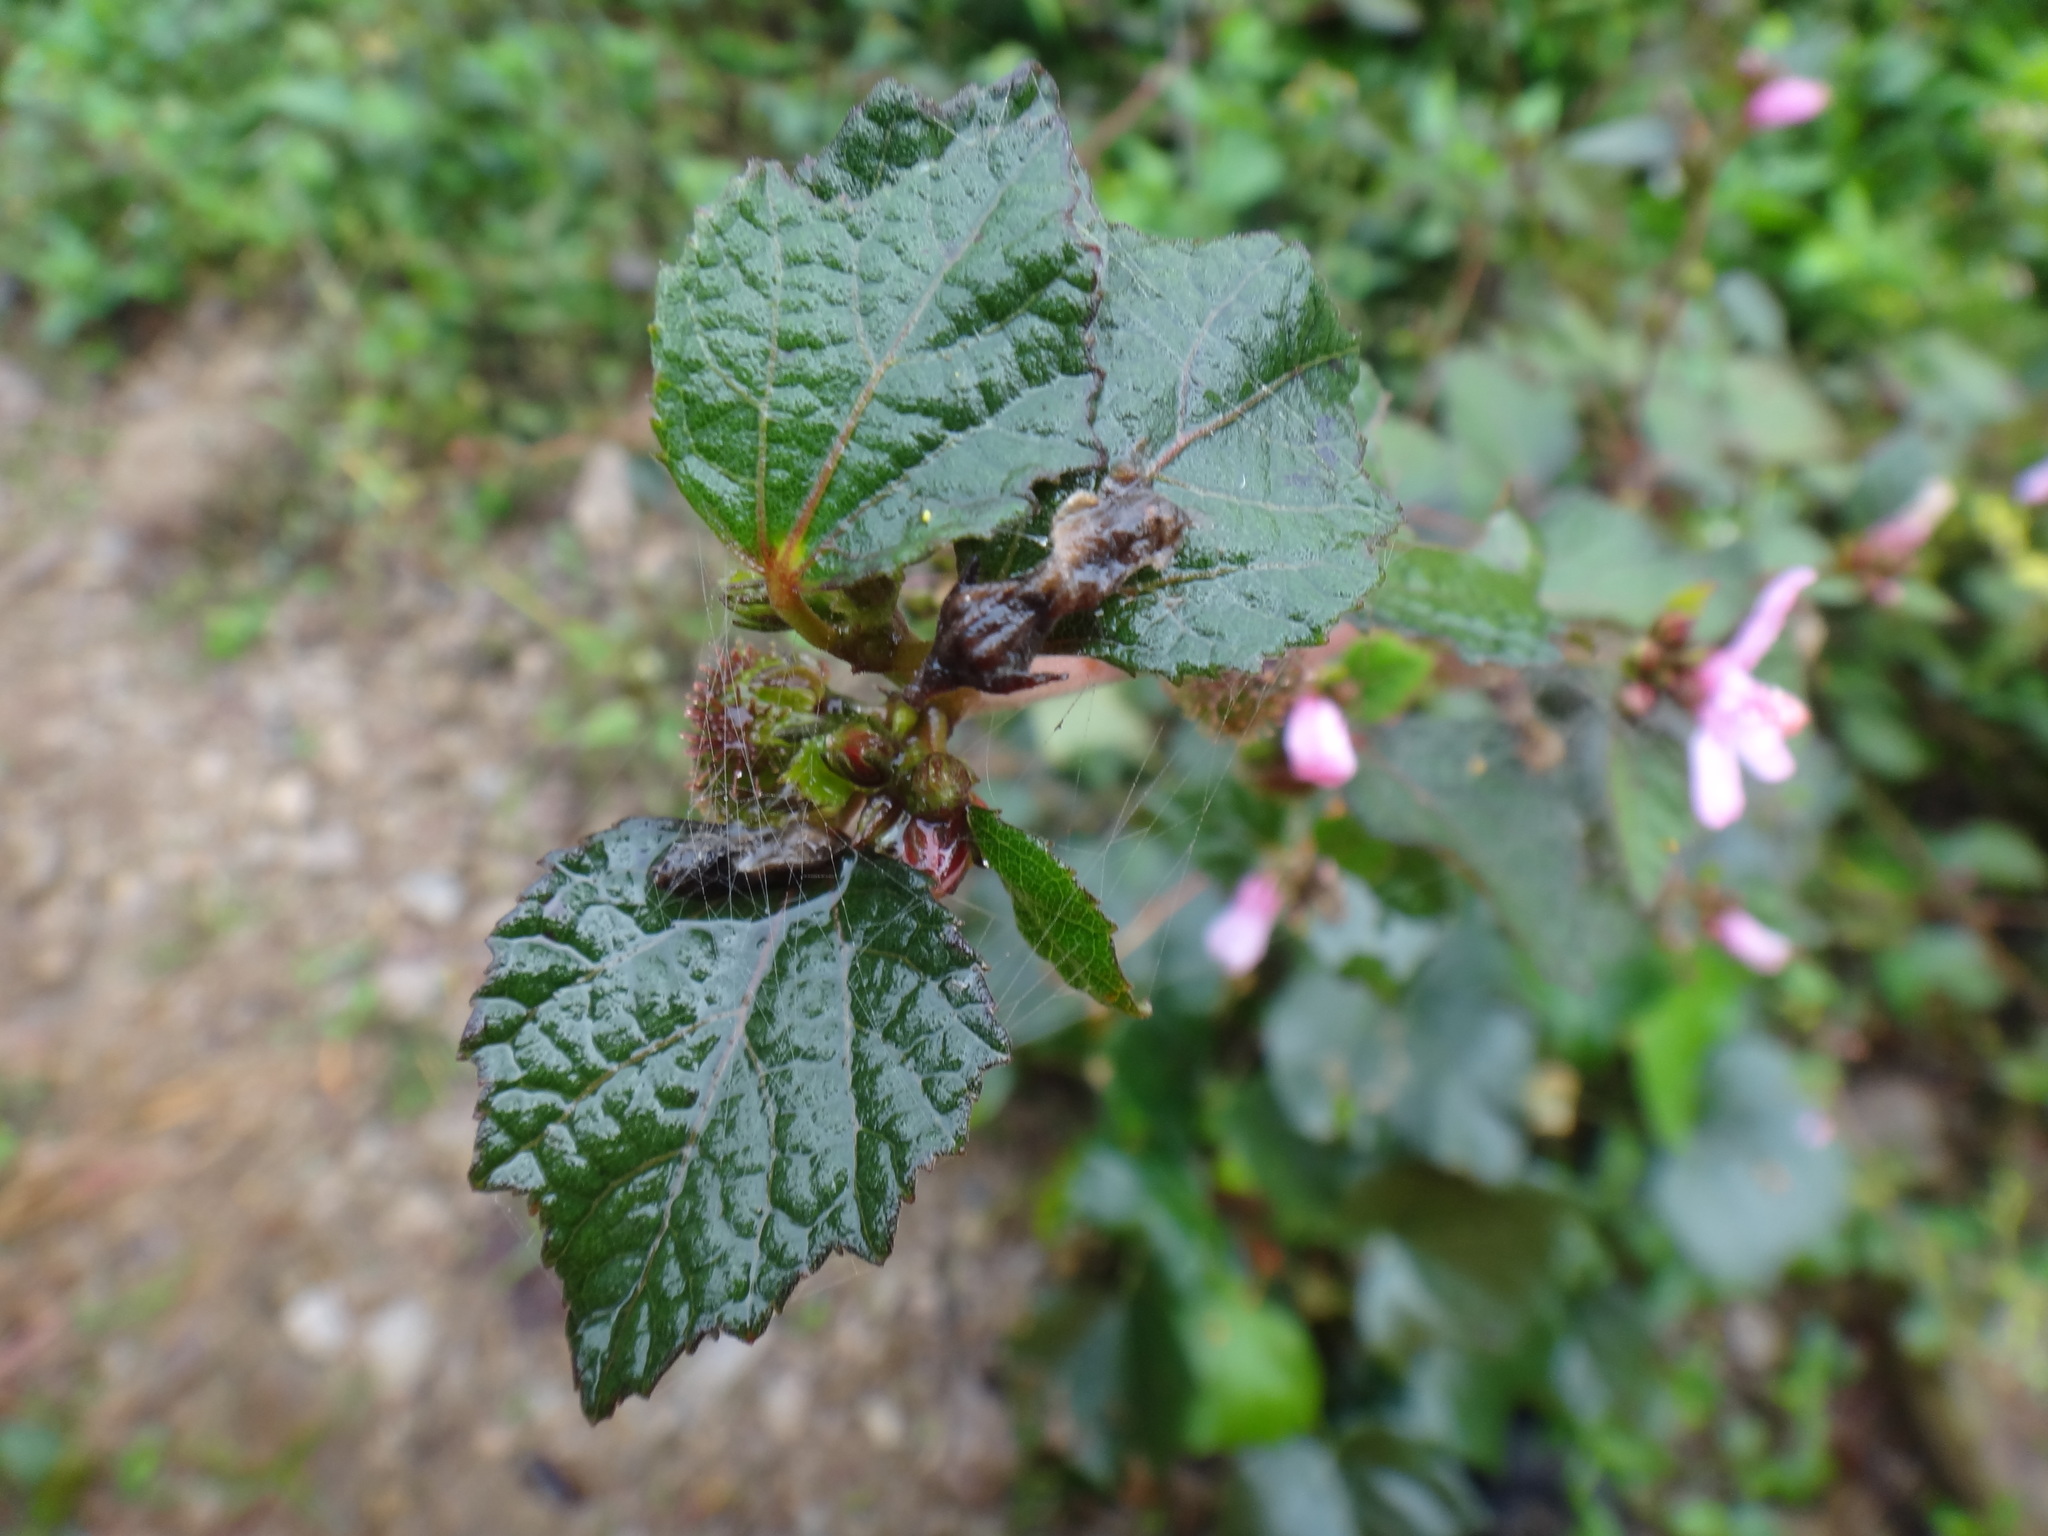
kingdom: Plantae
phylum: Tracheophyta
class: Magnoliopsida
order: Malvales
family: Malvaceae
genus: Urena
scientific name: Urena lobata
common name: Caesarweed
